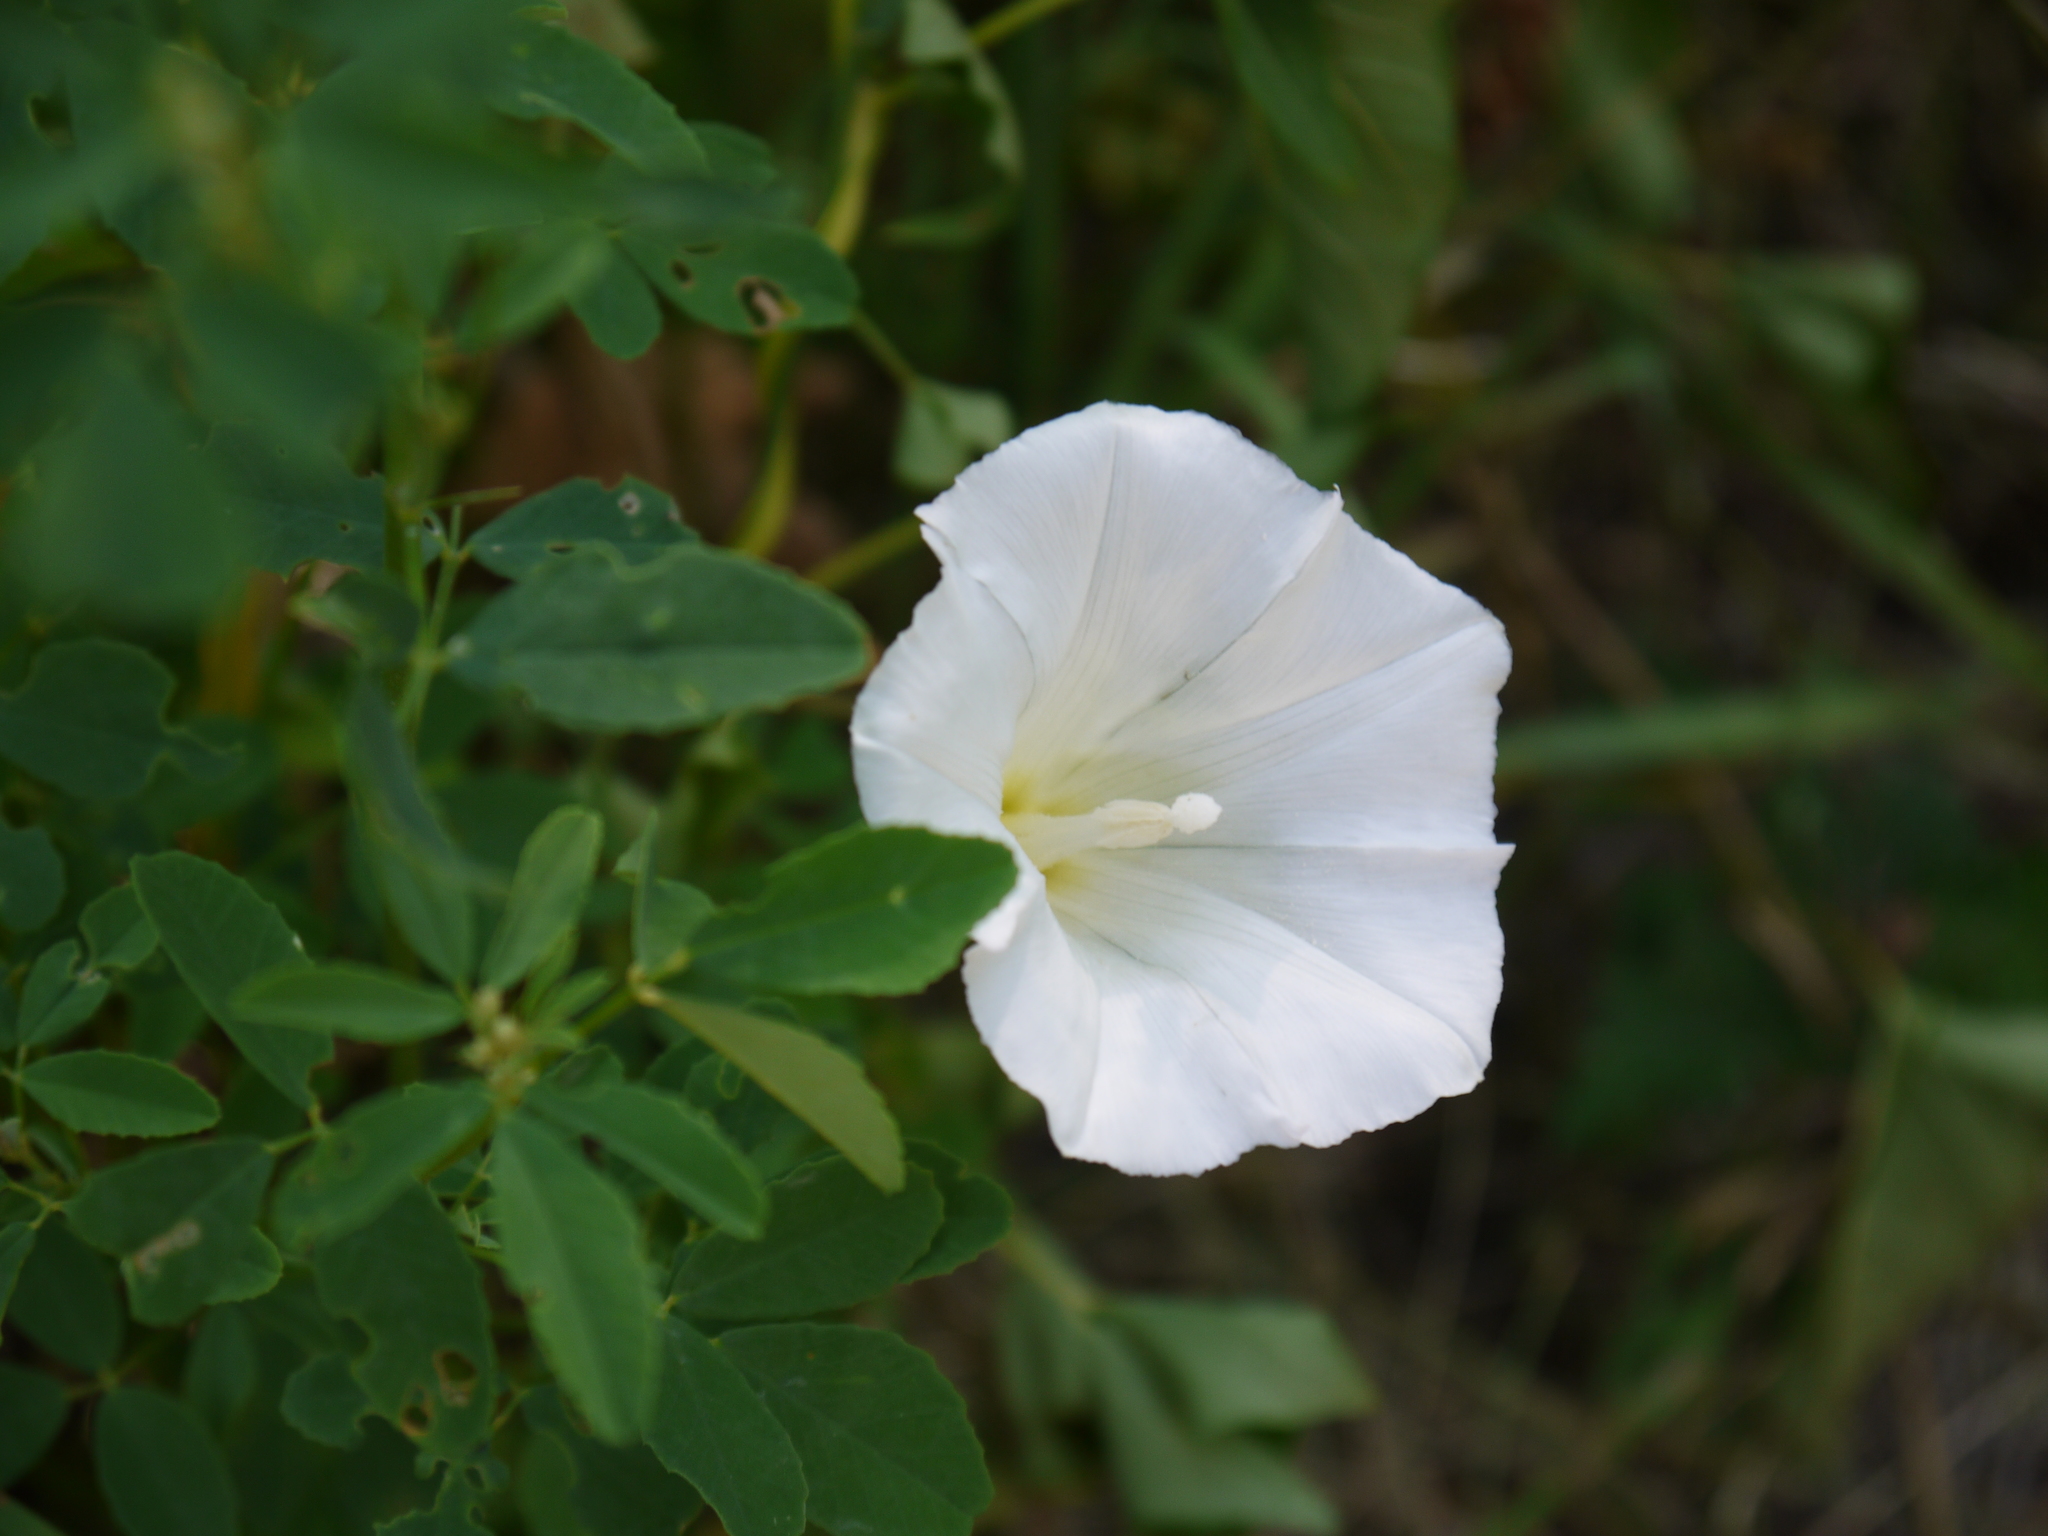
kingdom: Plantae
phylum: Tracheophyta
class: Magnoliopsida
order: Solanales
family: Convolvulaceae
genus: Calystegia
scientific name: Calystegia sepium
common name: Hedge bindweed
